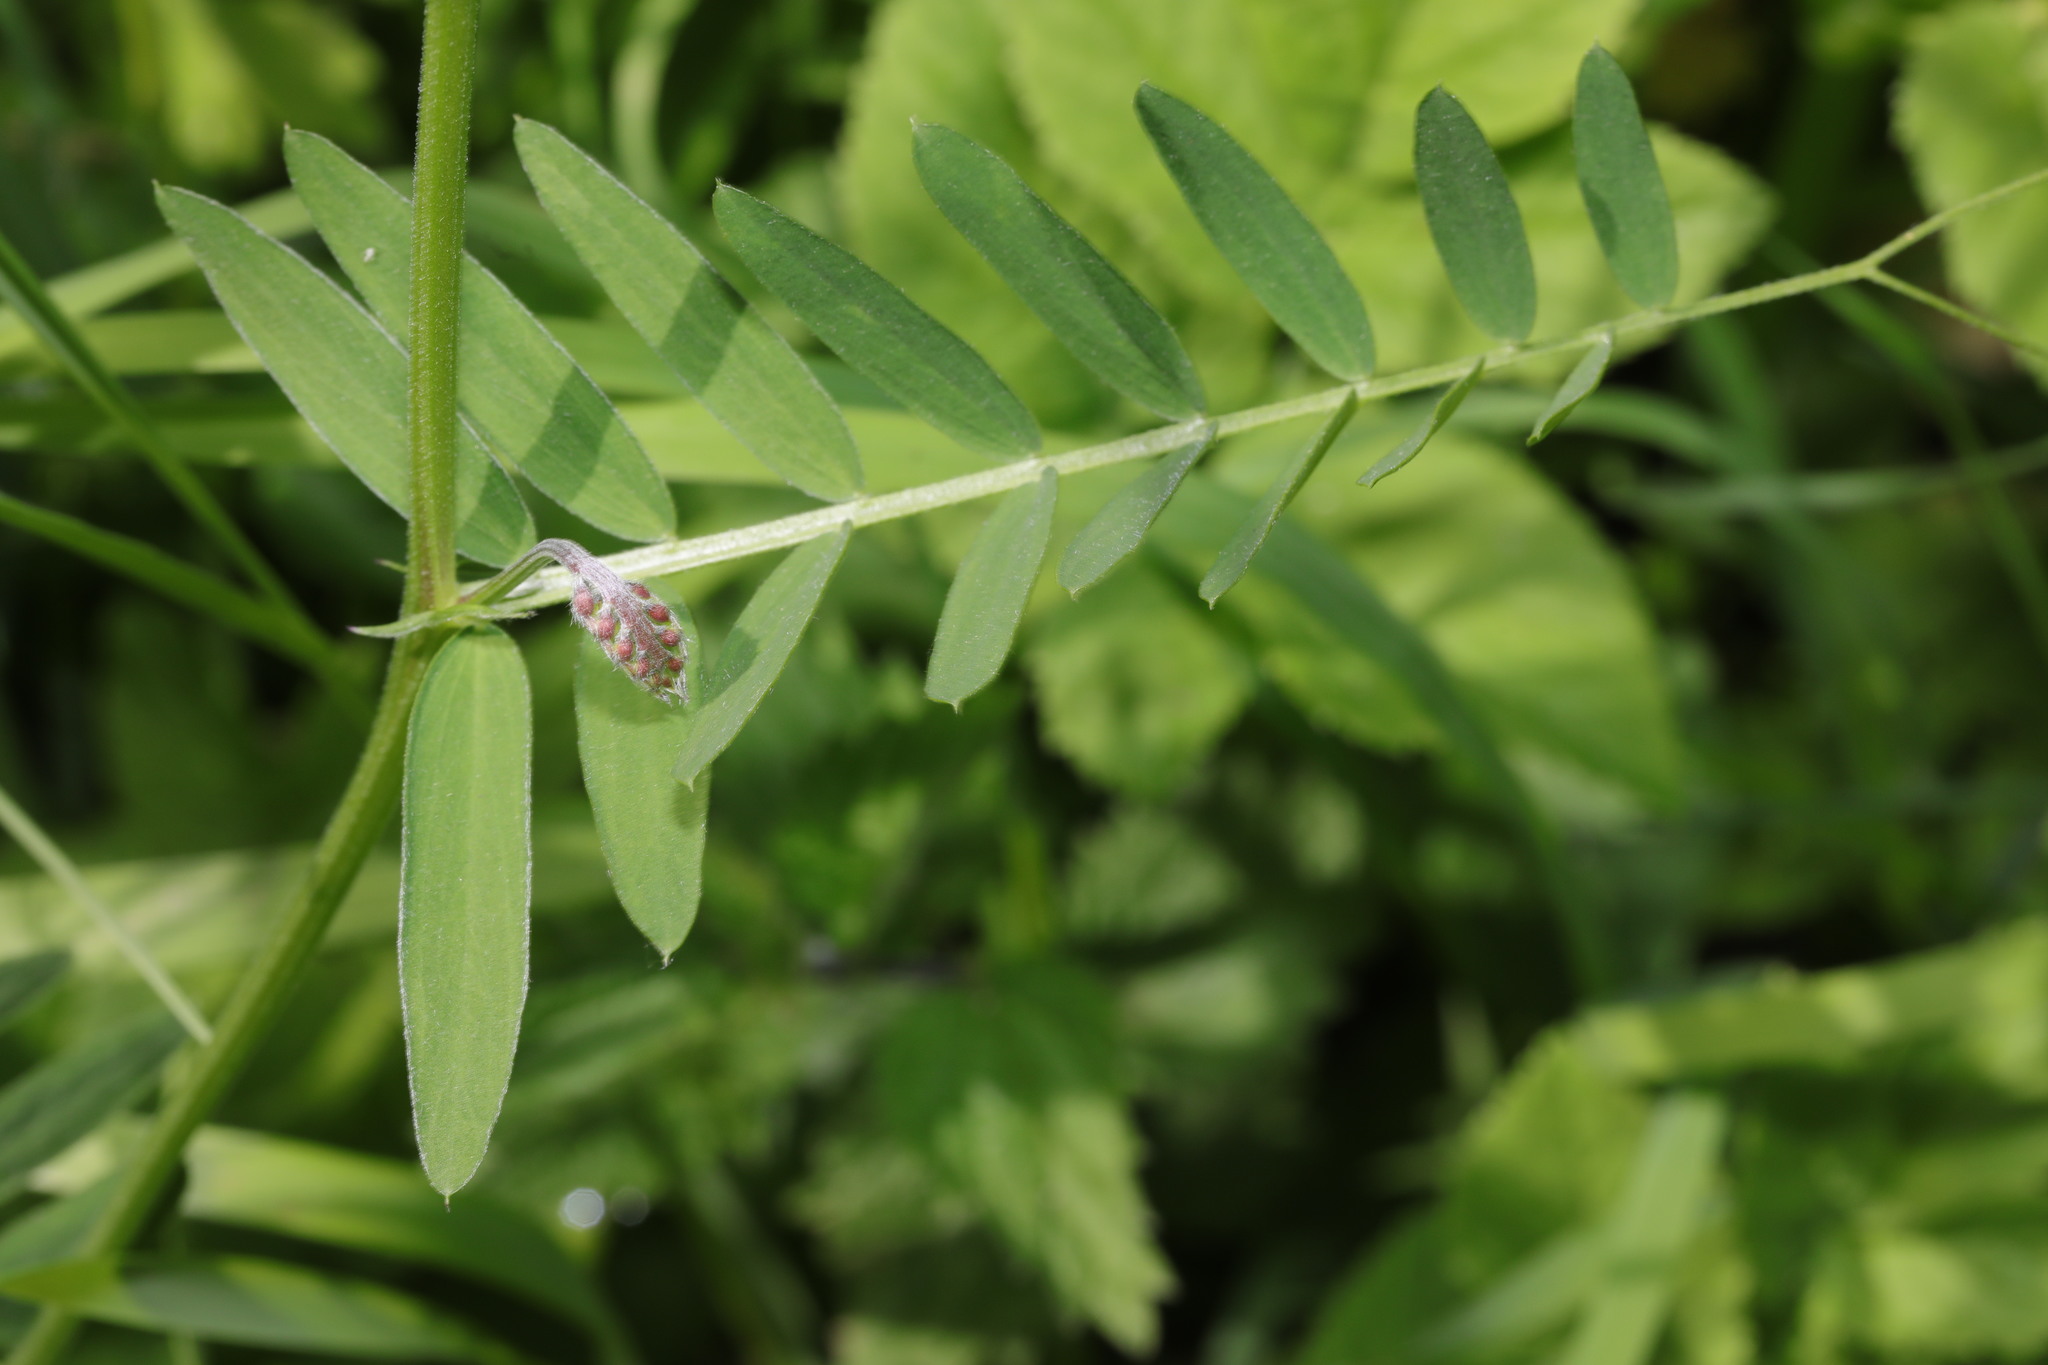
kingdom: Plantae
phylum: Tracheophyta
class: Magnoliopsida
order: Fabales
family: Fabaceae
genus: Vicia
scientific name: Vicia cracca
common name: Bird vetch
